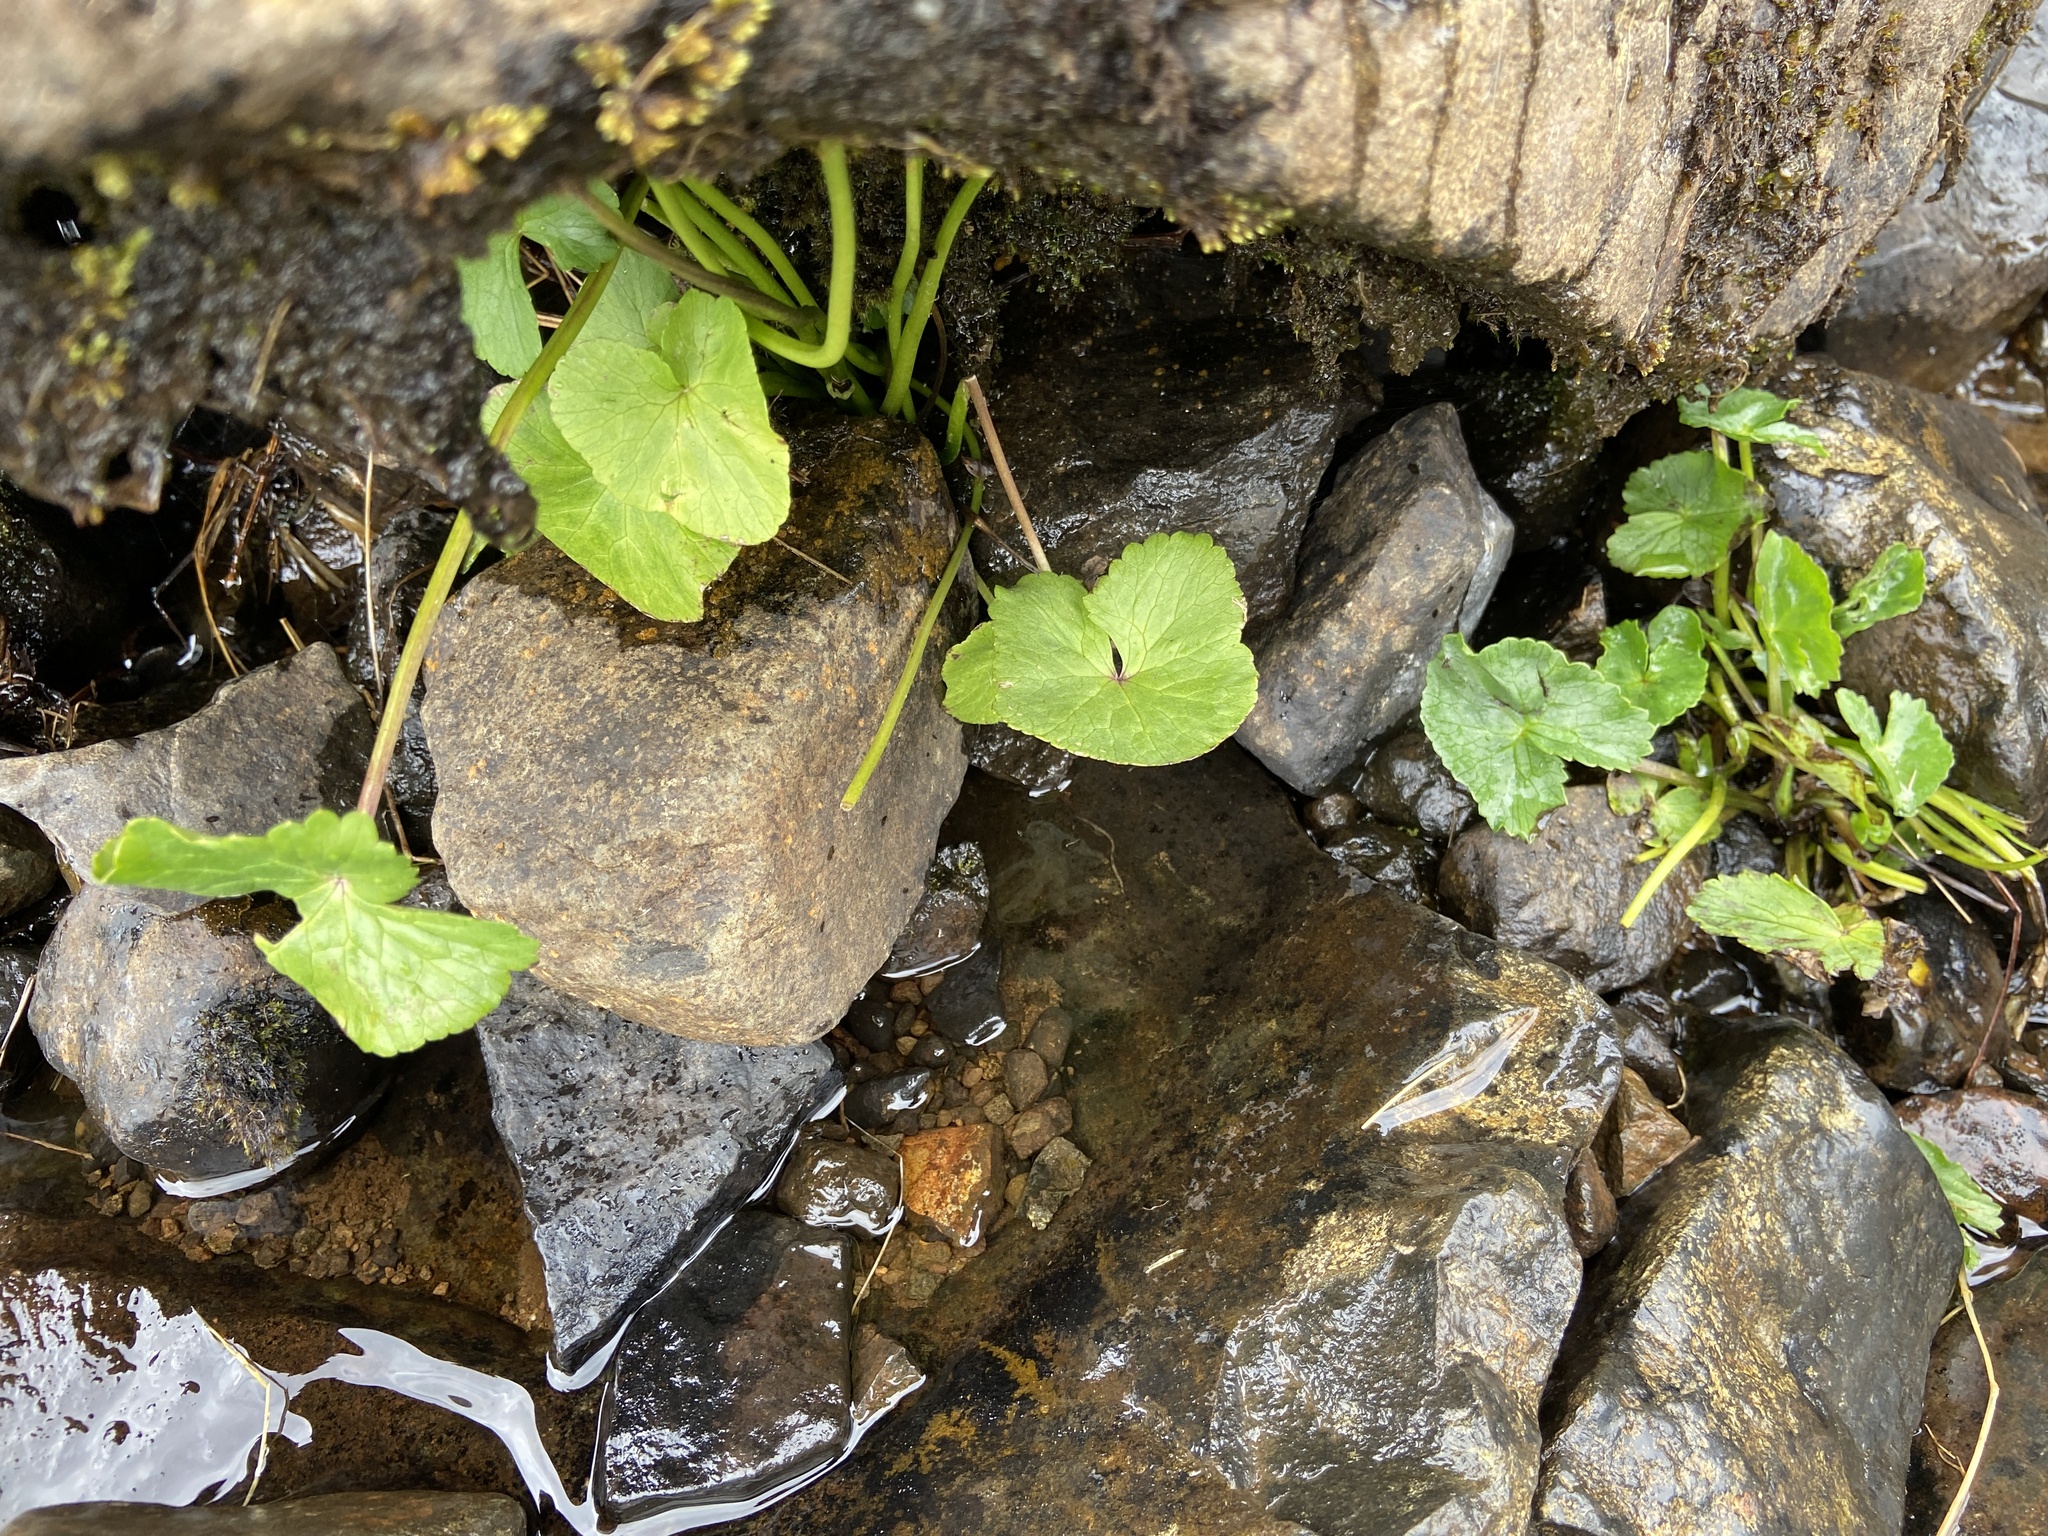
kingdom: Plantae
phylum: Tracheophyta
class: Magnoliopsida
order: Ranunculales
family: Ranunculaceae
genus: Caltha
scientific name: Caltha palustris
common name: Marsh marigold
